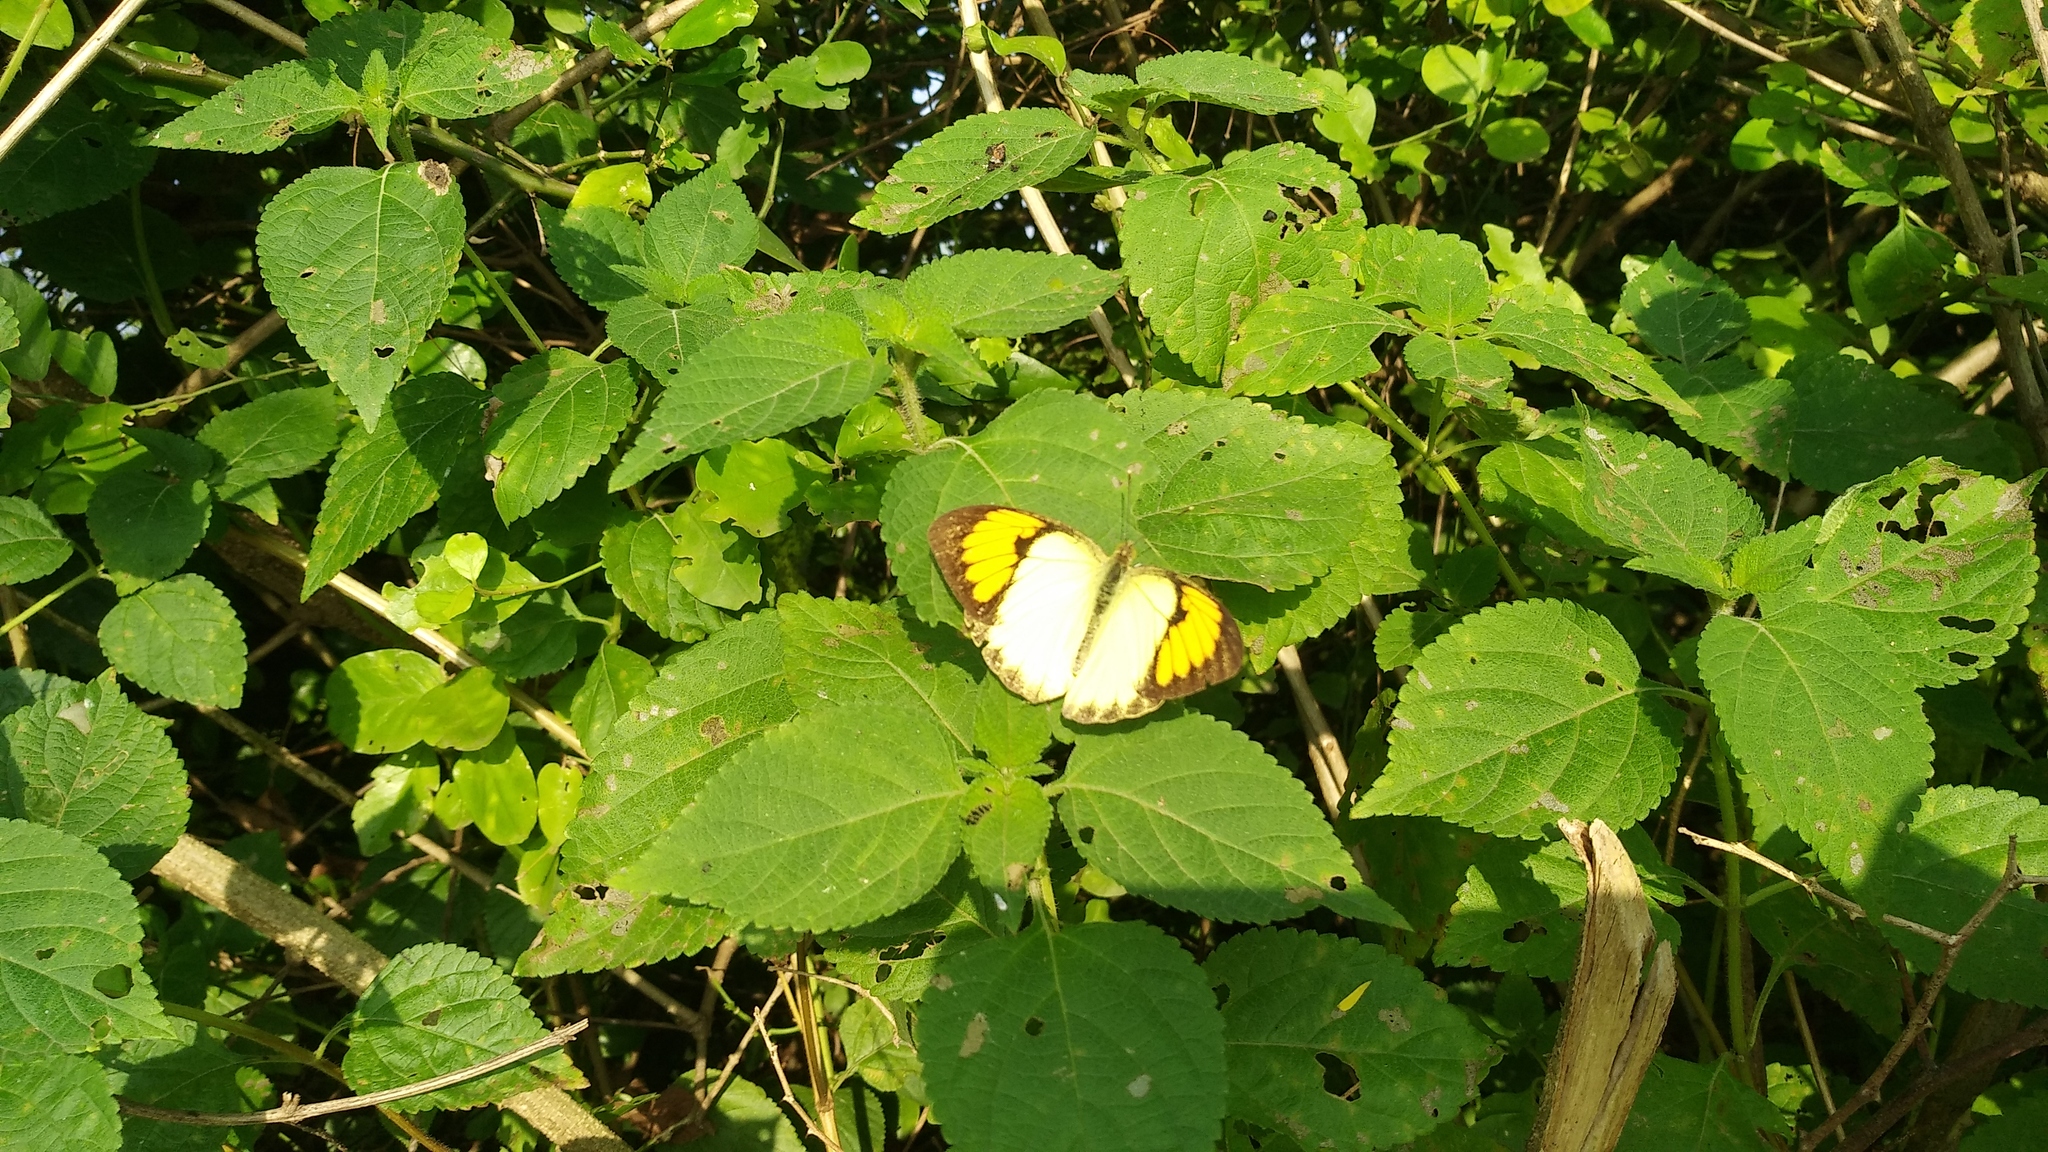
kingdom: Animalia
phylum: Arthropoda
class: Insecta
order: Lepidoptera
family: Pieridae
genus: Ixias
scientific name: Ixias pyrene
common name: Yellow orange tip
